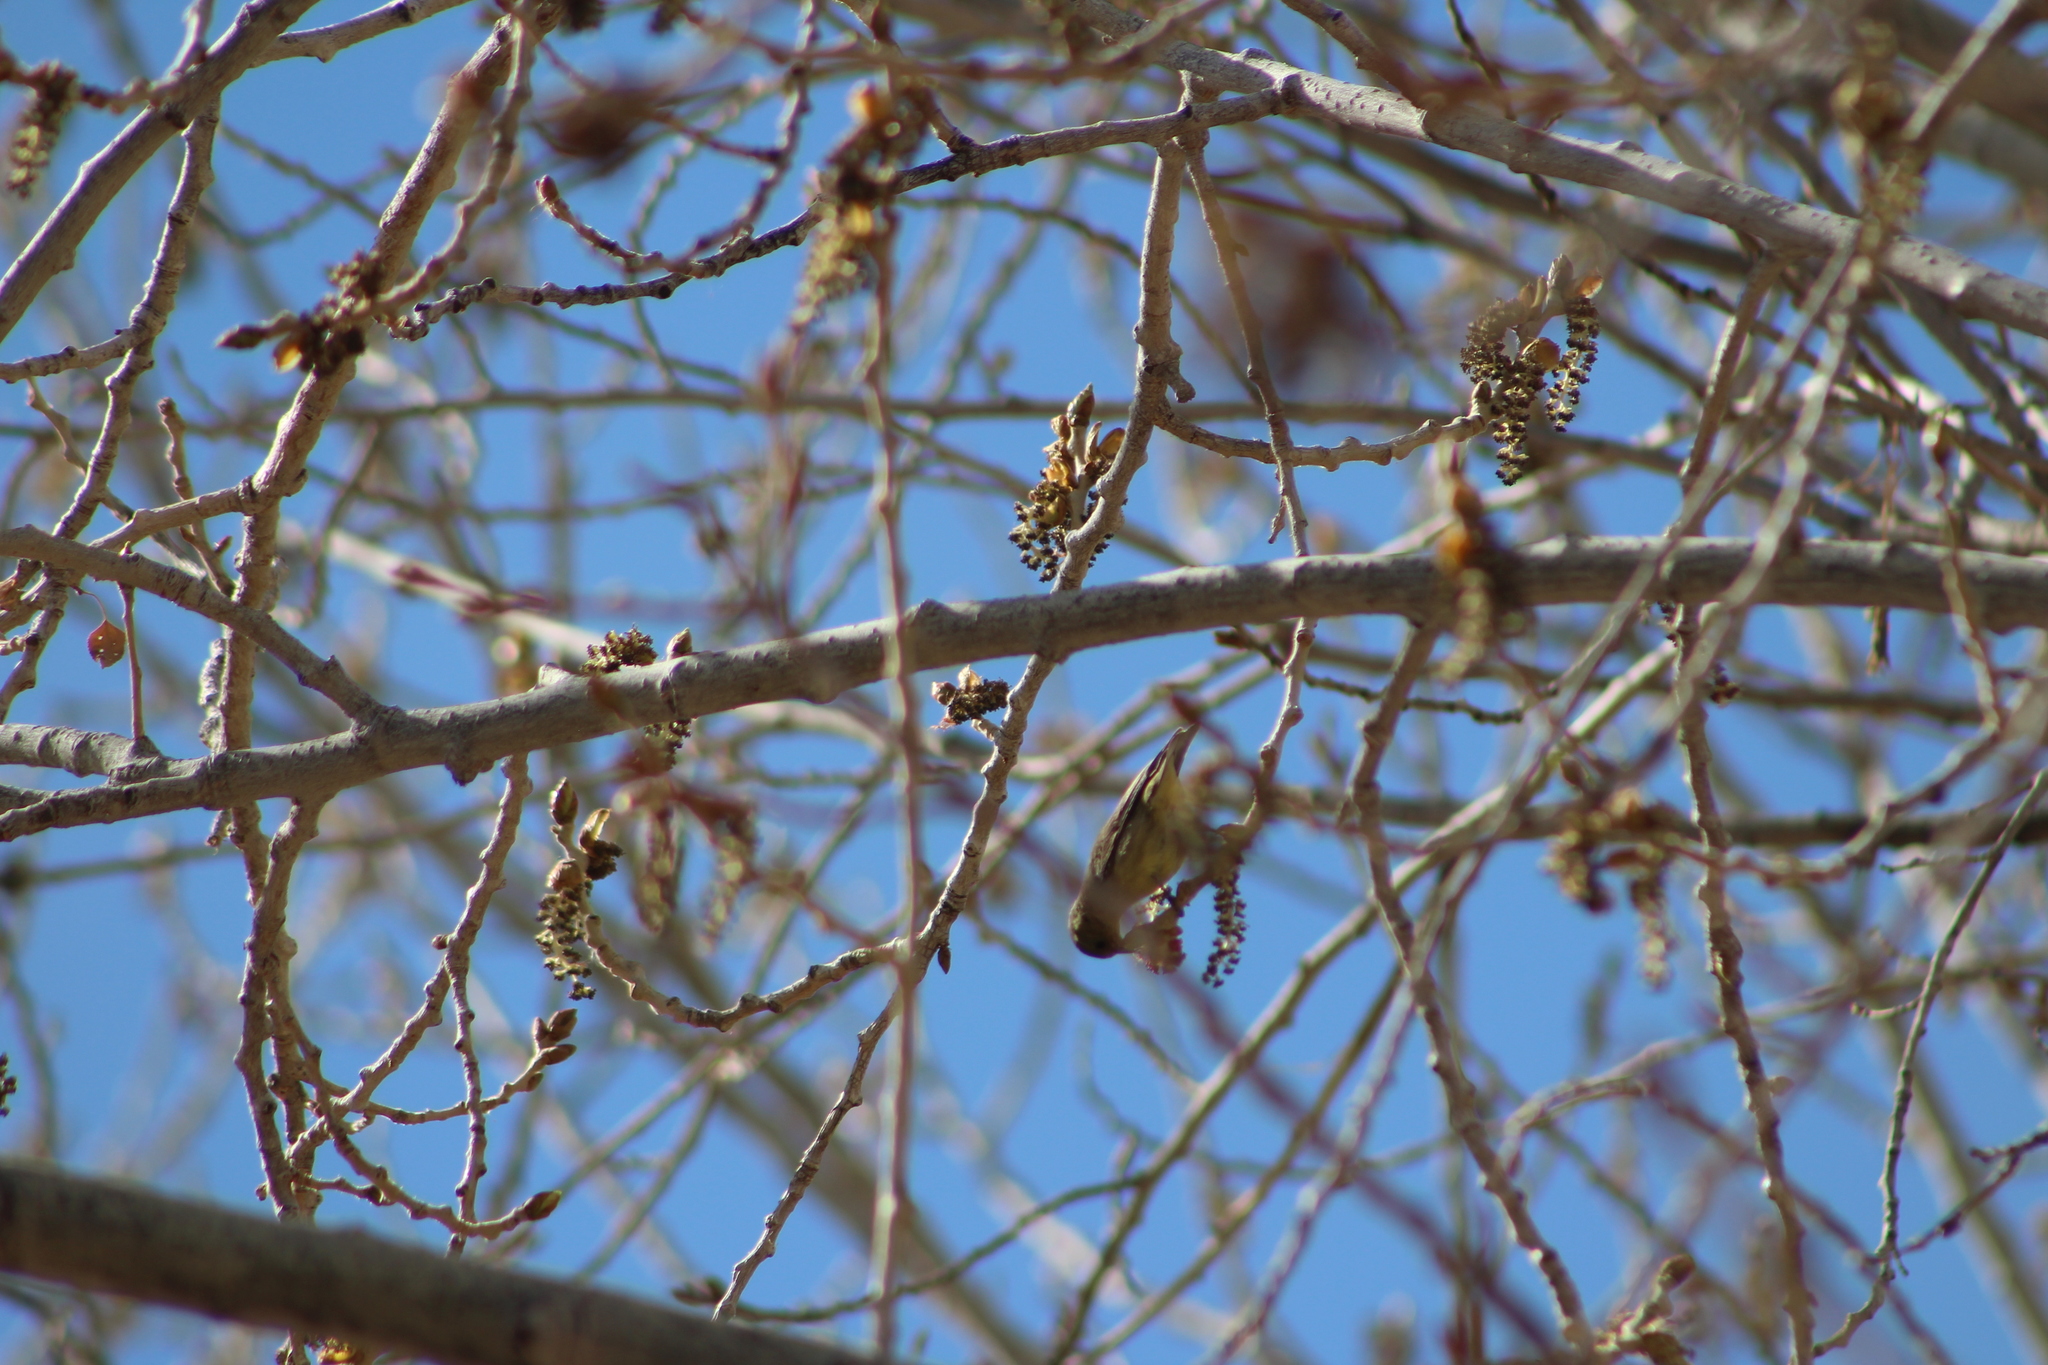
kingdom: Animalia
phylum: Chordata
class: Aves
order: Passeriformes
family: Fringillidae
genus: Spinus
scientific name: Spinus psaltria
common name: Lesser goldfinch
